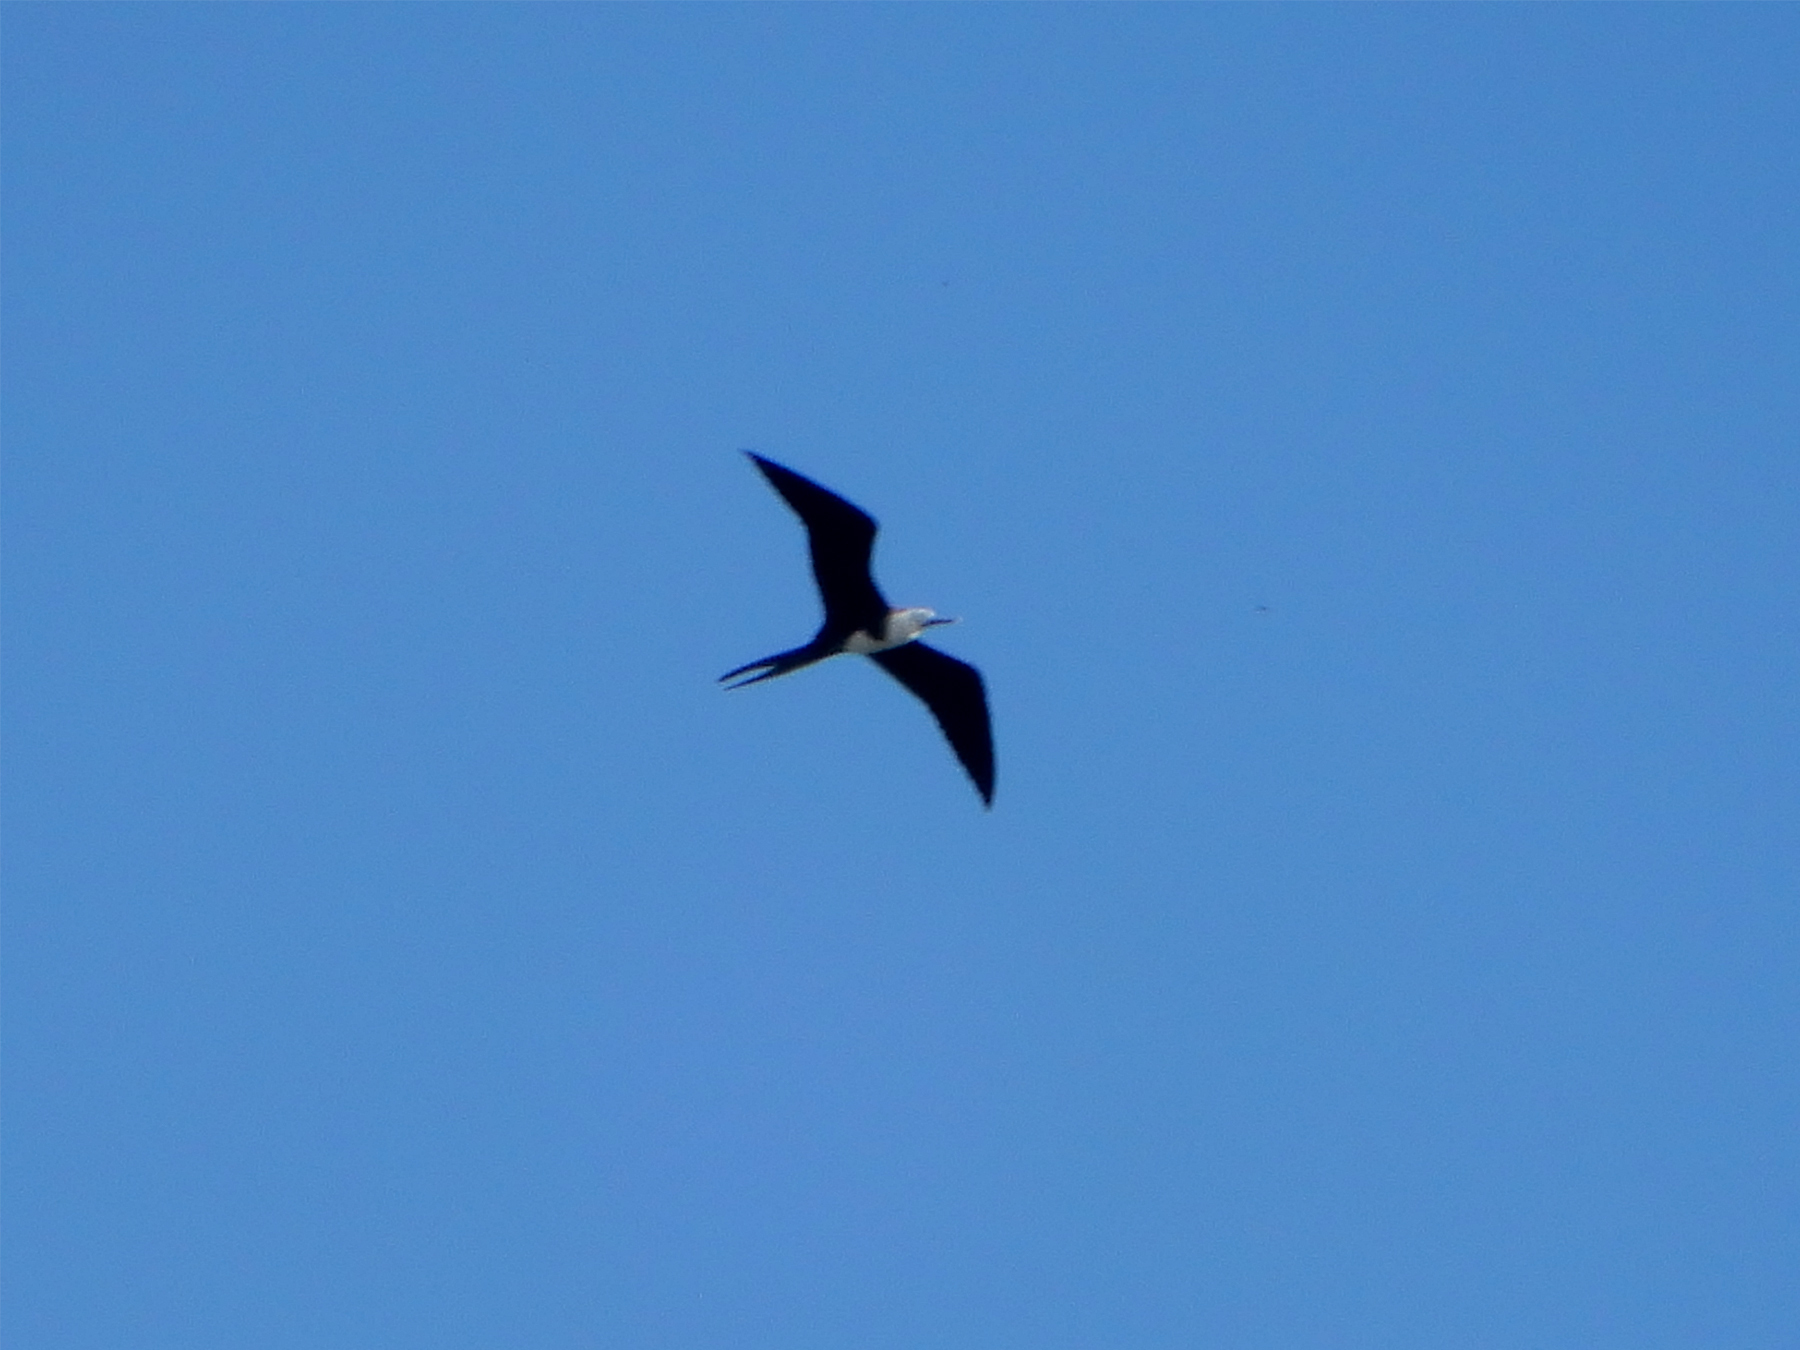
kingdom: Animalia
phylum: Chordata
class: Aves
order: Suliformes
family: Fregatidae
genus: Fregata
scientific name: Fregata magnificens
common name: Magnificent frigatebird
